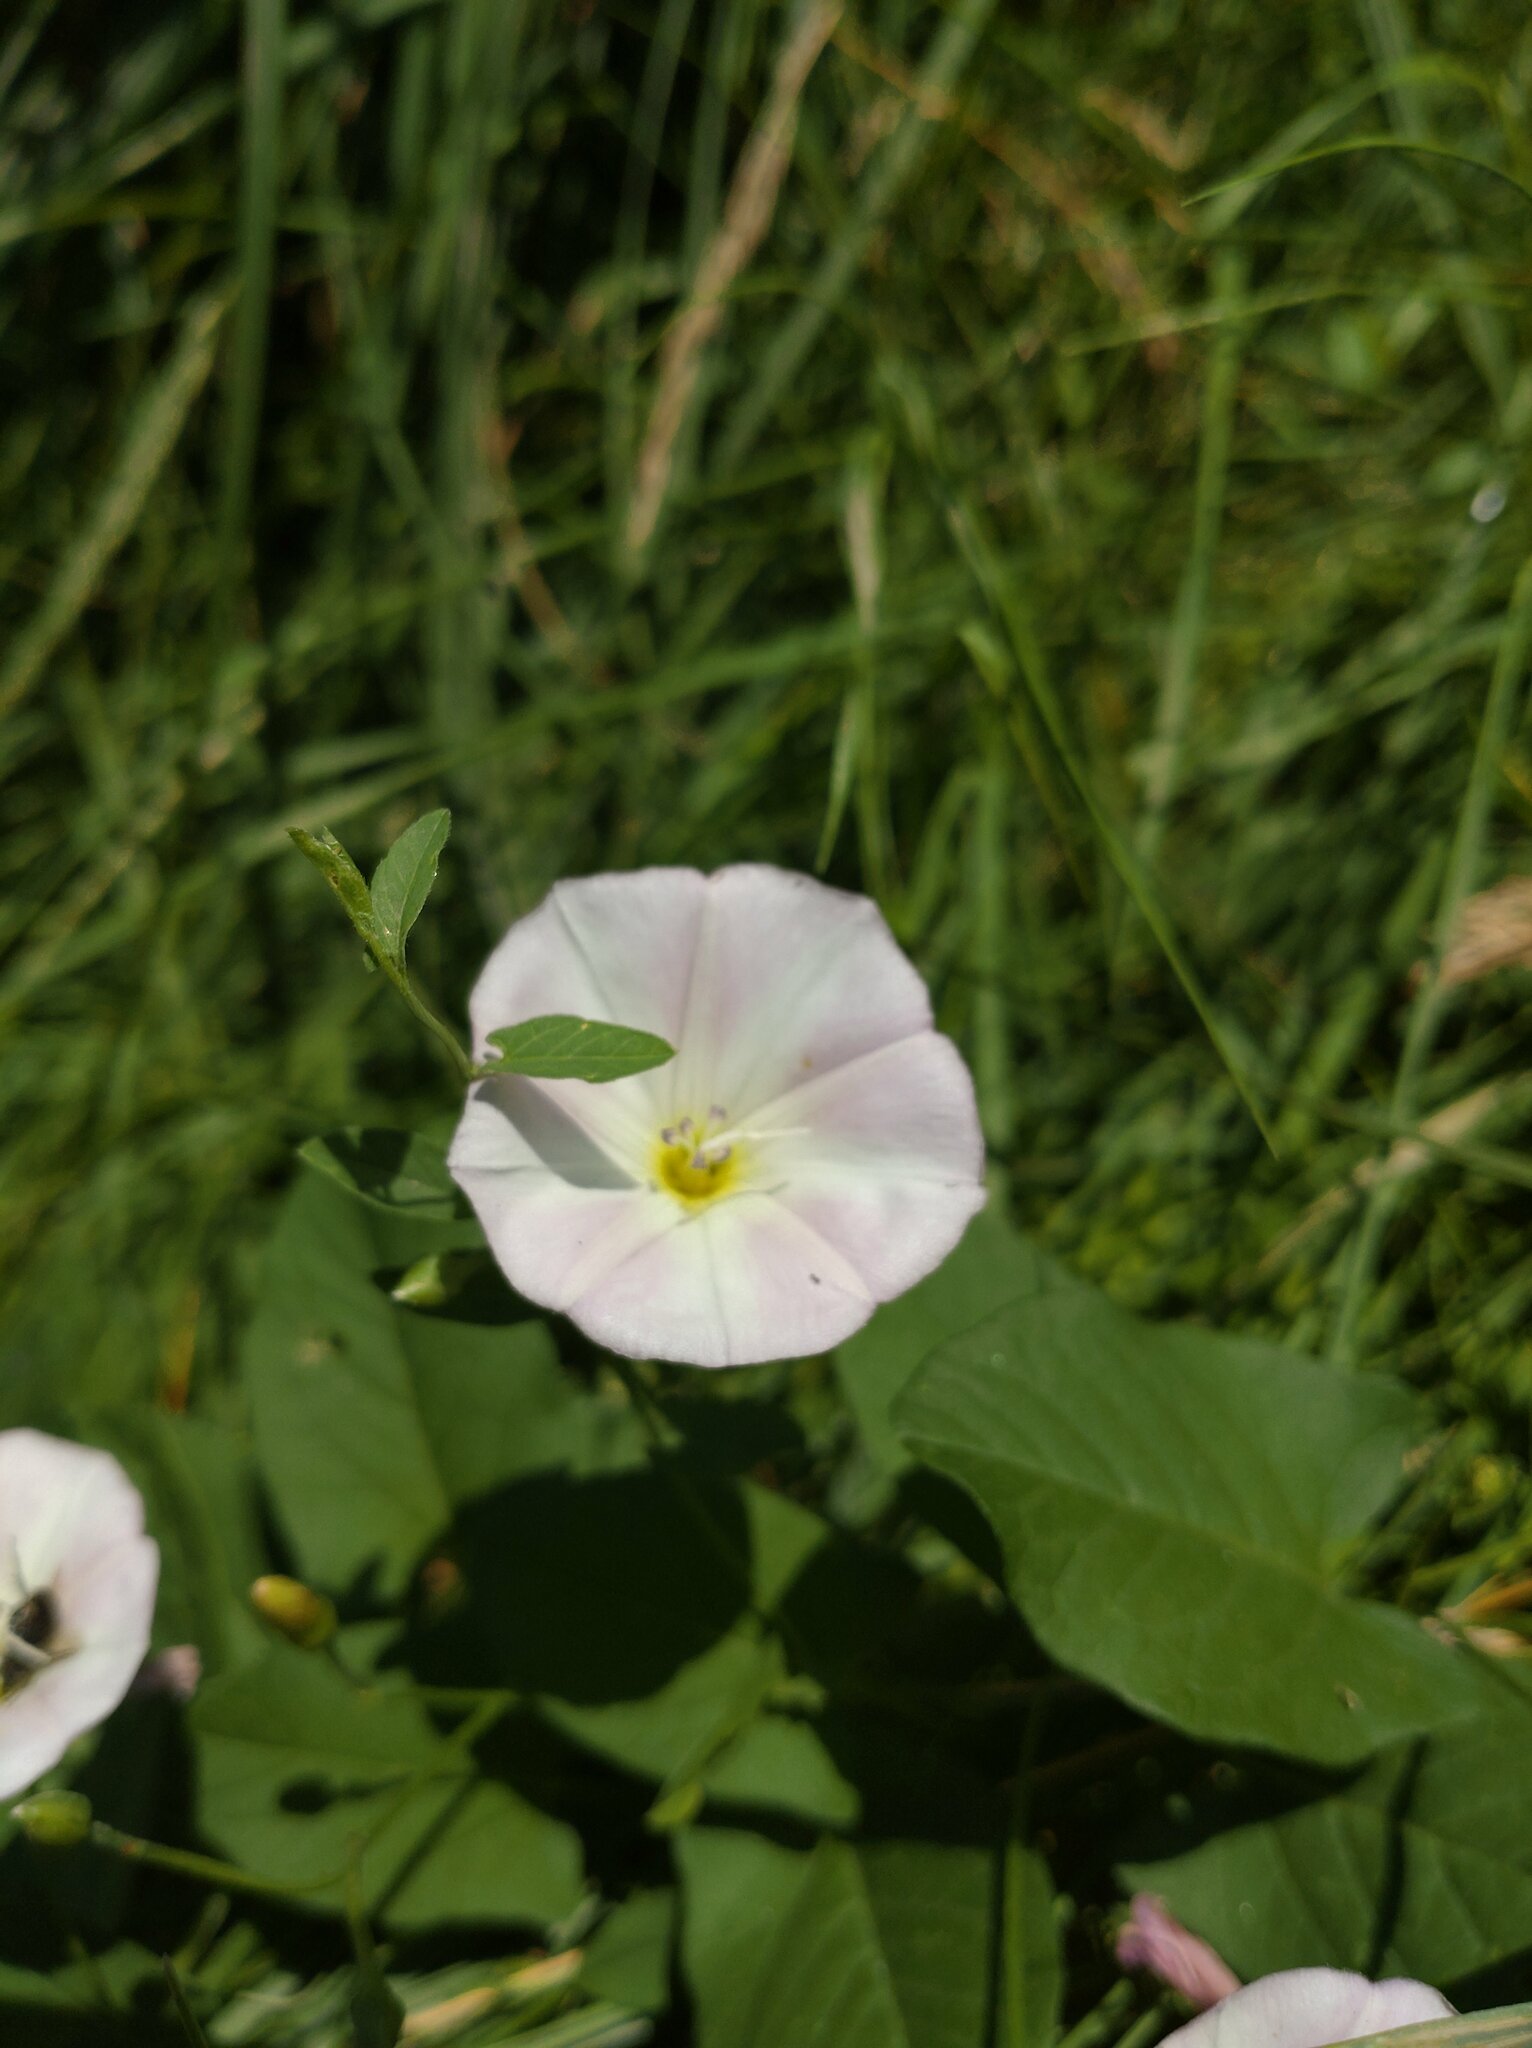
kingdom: Plantae
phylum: Tracheophyta
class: Magnoliopsida
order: Solanales
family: Convolvulaceae
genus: Convolvulus
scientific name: Convolvulus arvensis
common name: Field bindweed
